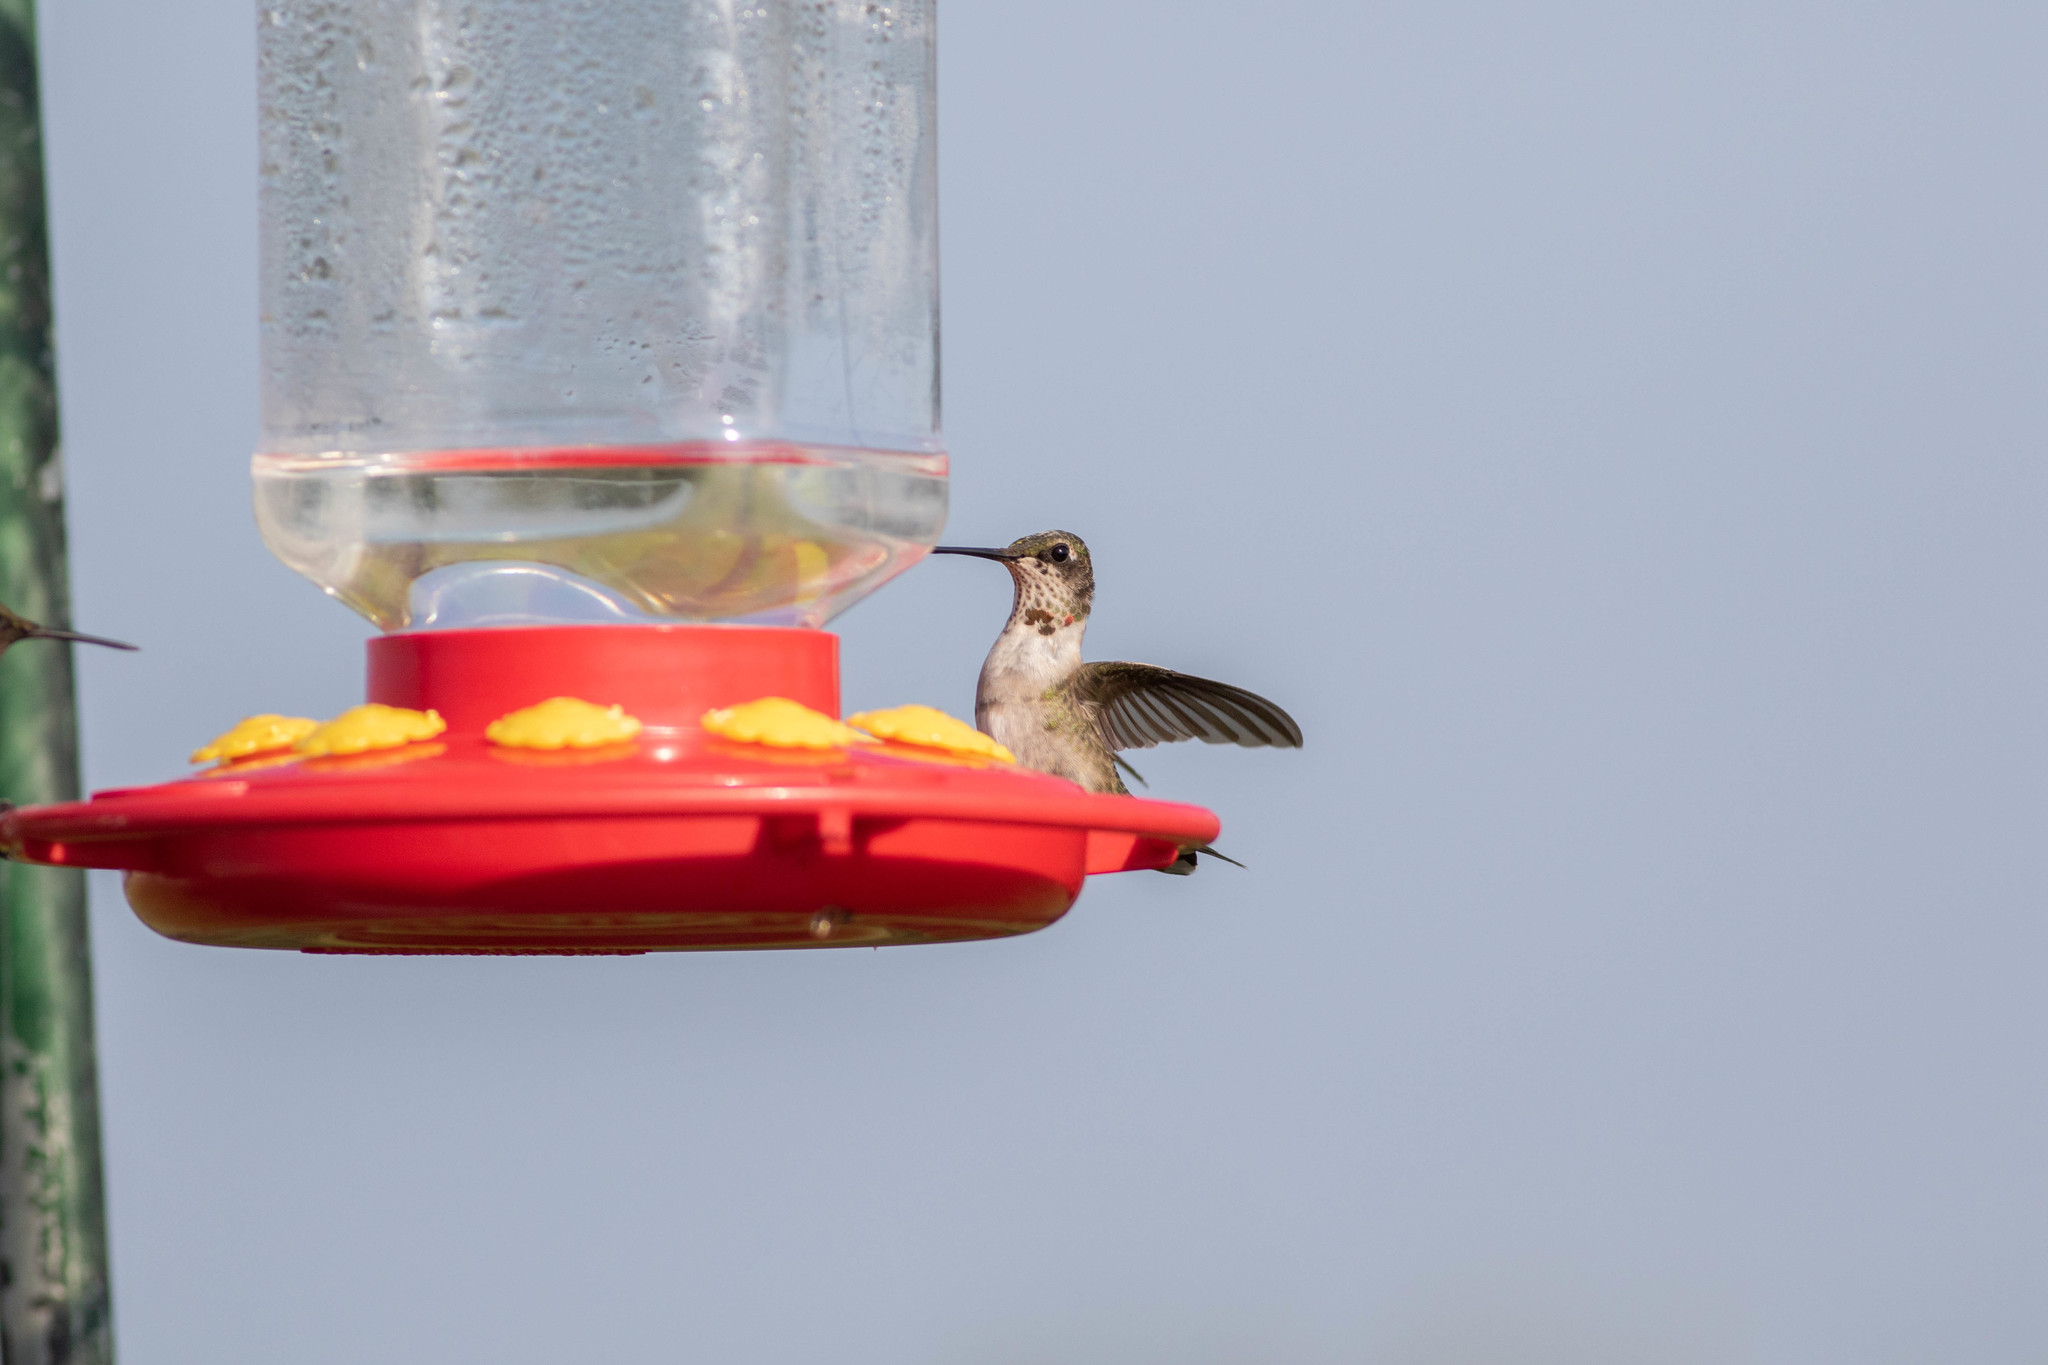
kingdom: Animalia
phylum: Chordata
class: Aves
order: Apodiformes
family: Trochilidae
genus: Archilochus
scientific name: Archilochus colubris
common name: Ruby-throated hummingbird
